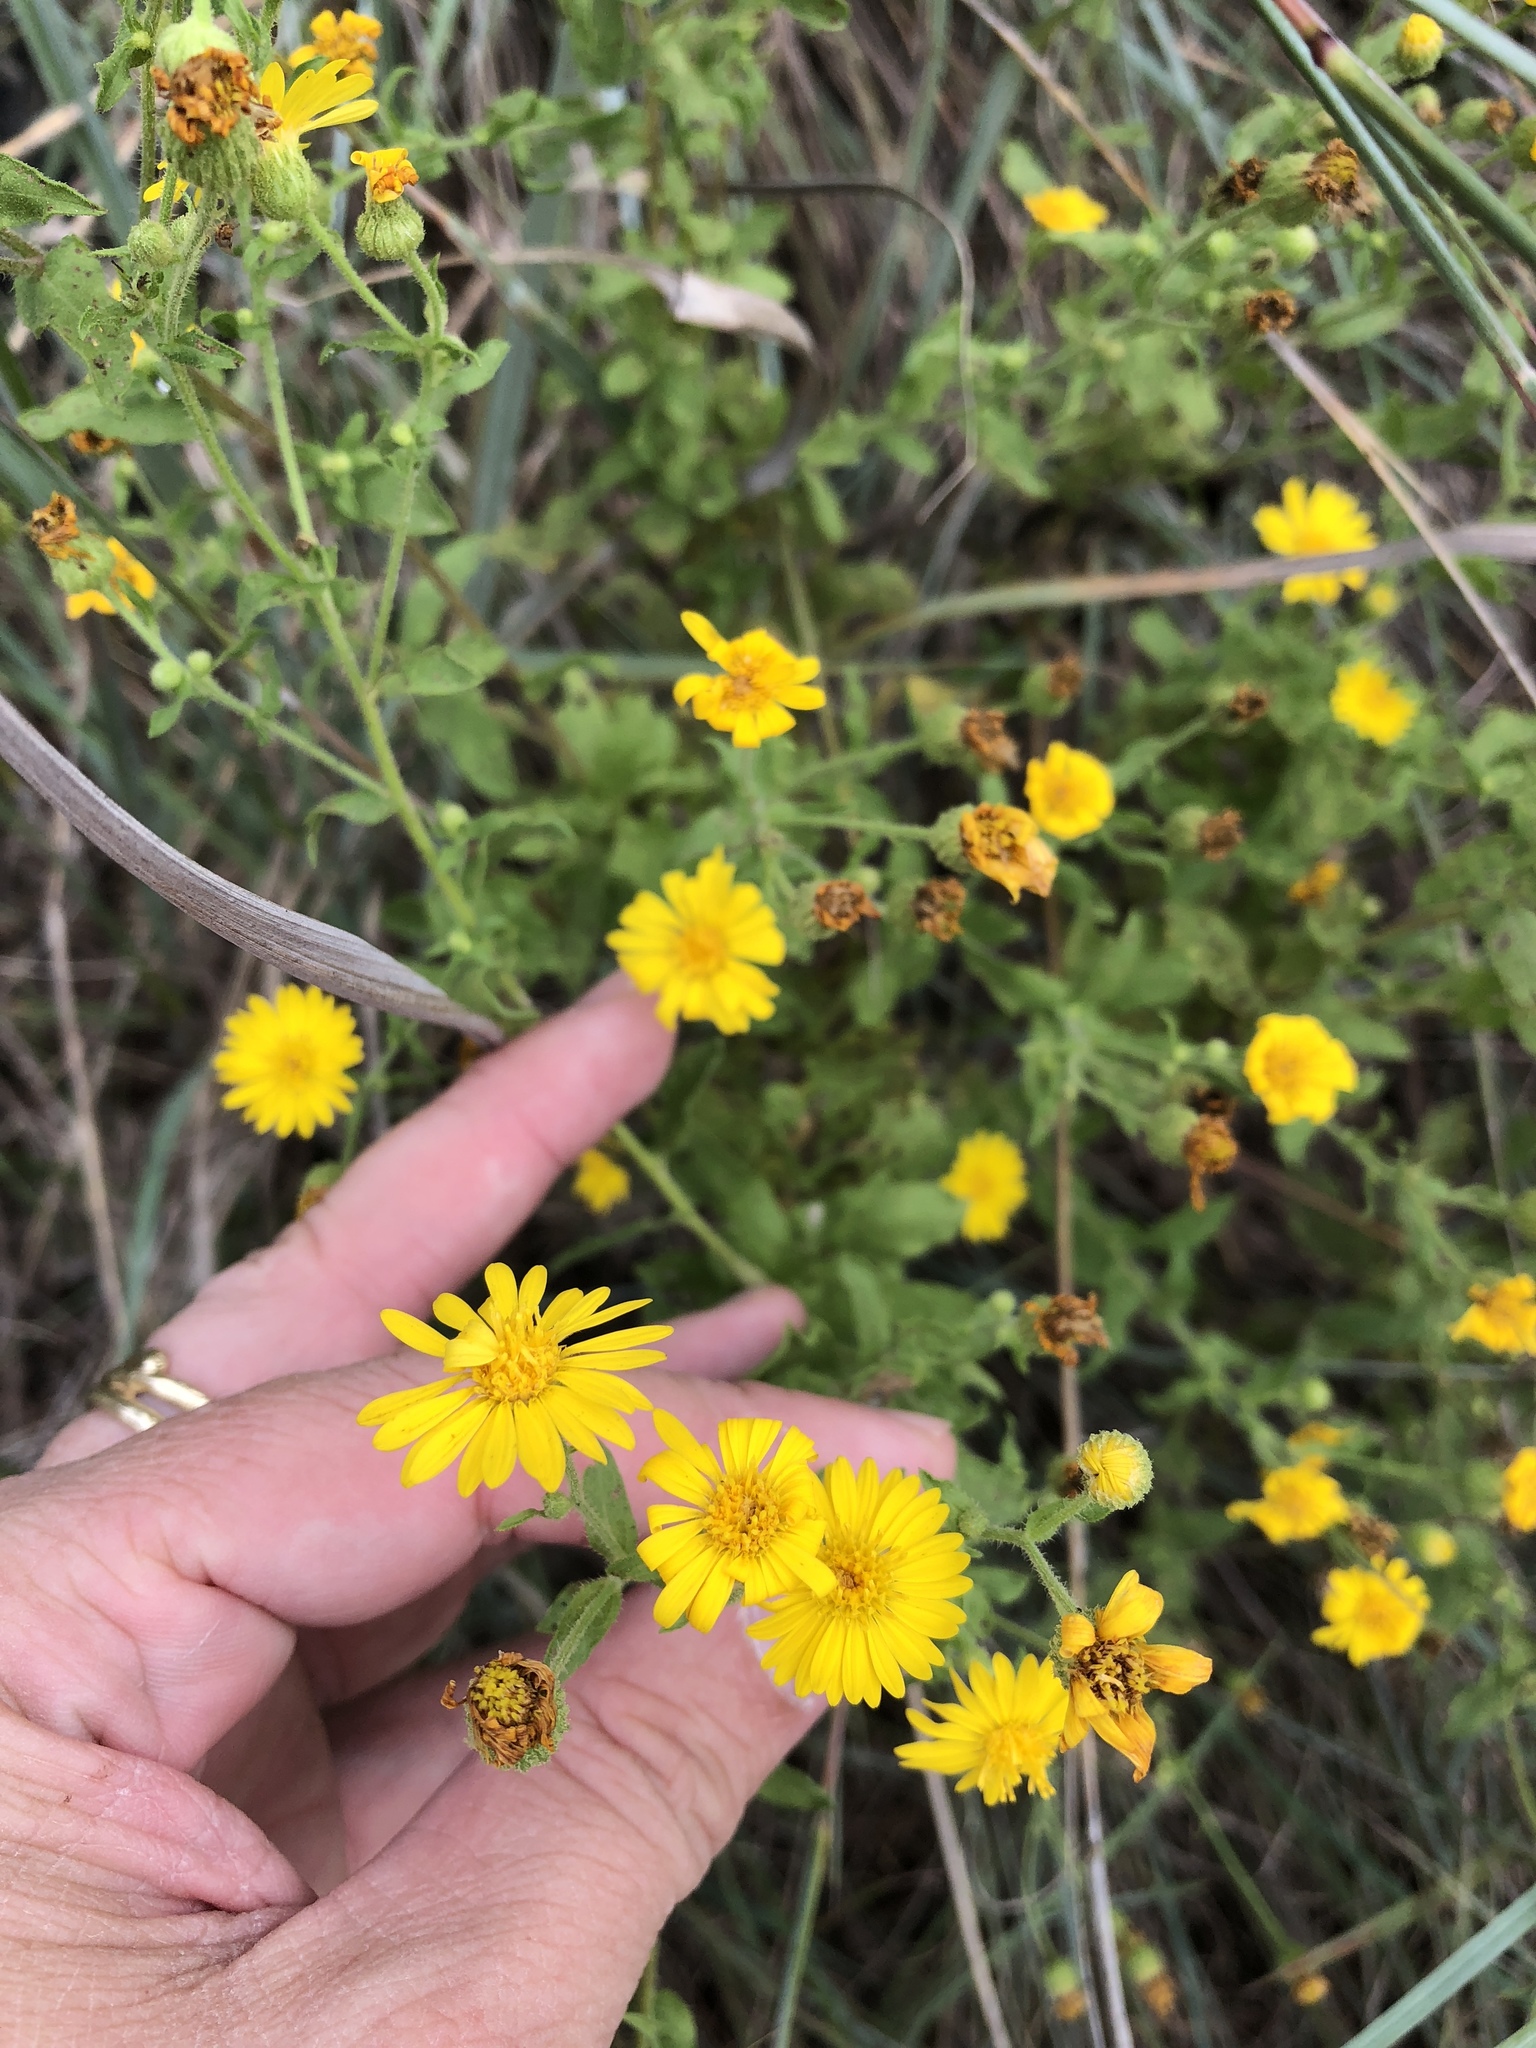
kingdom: Plantae
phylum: Tracheophyta
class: Magnoliopsida
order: Asterales
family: Asteraceae
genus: Heterotheca
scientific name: Heterotheca subaxillaris
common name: Camphorweed
